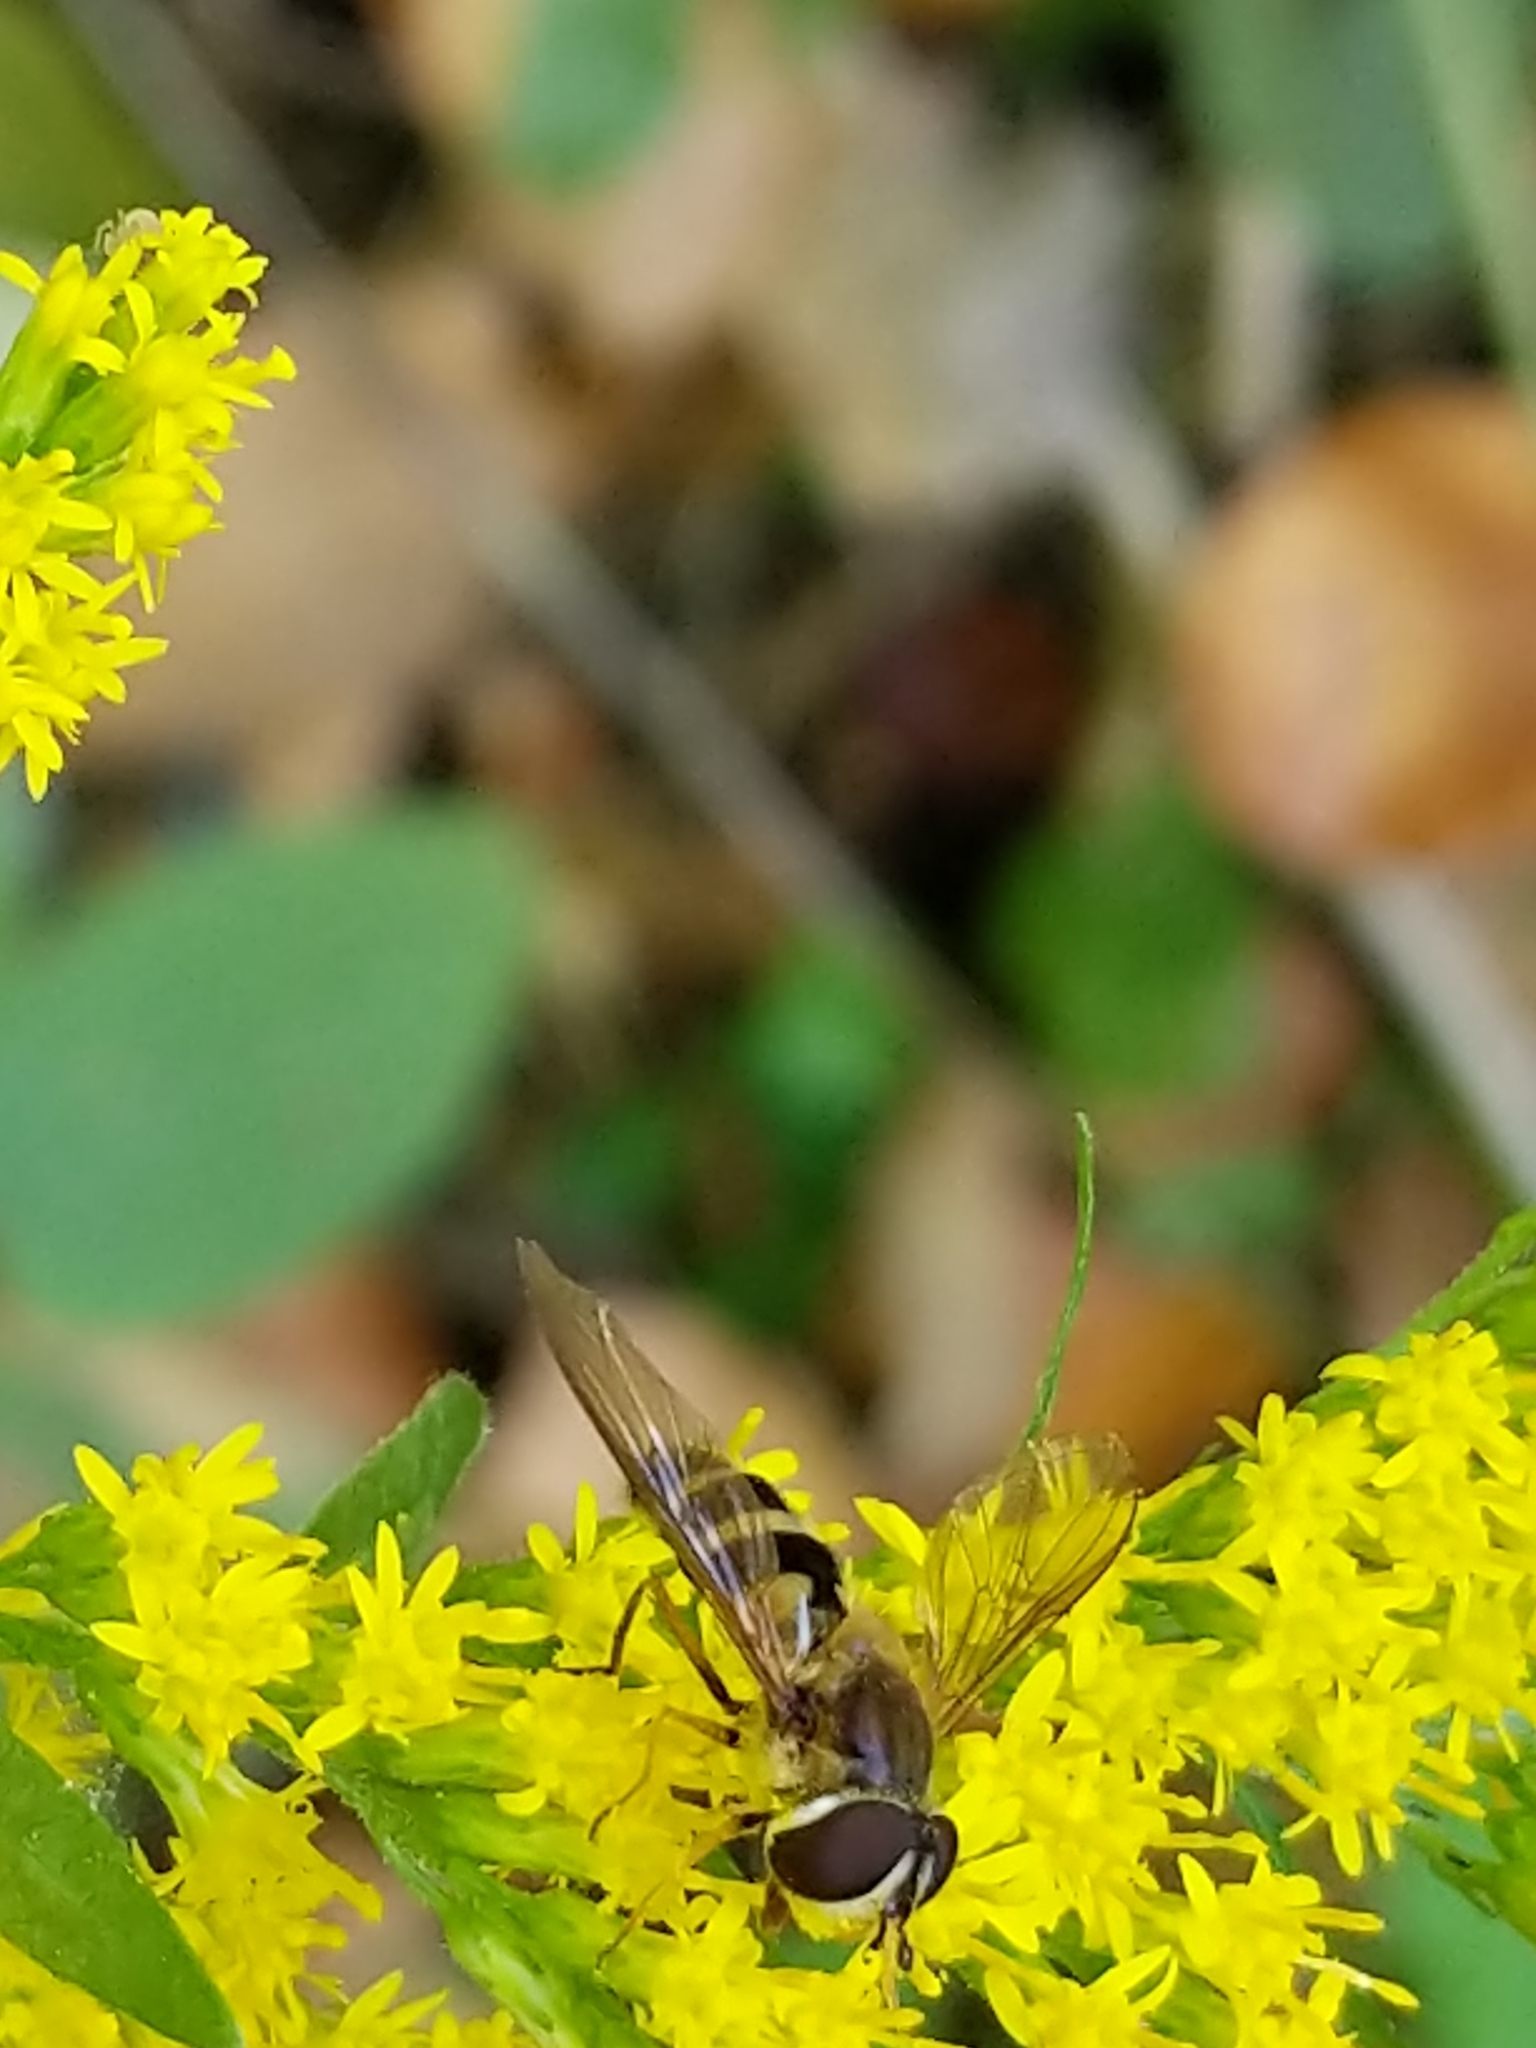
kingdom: Animalia
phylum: Arthropoda
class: Insecta
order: Diptera
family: Syrphidae
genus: Epistrophe
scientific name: Epistrophe grossulariae
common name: Black-horned smoothtail
